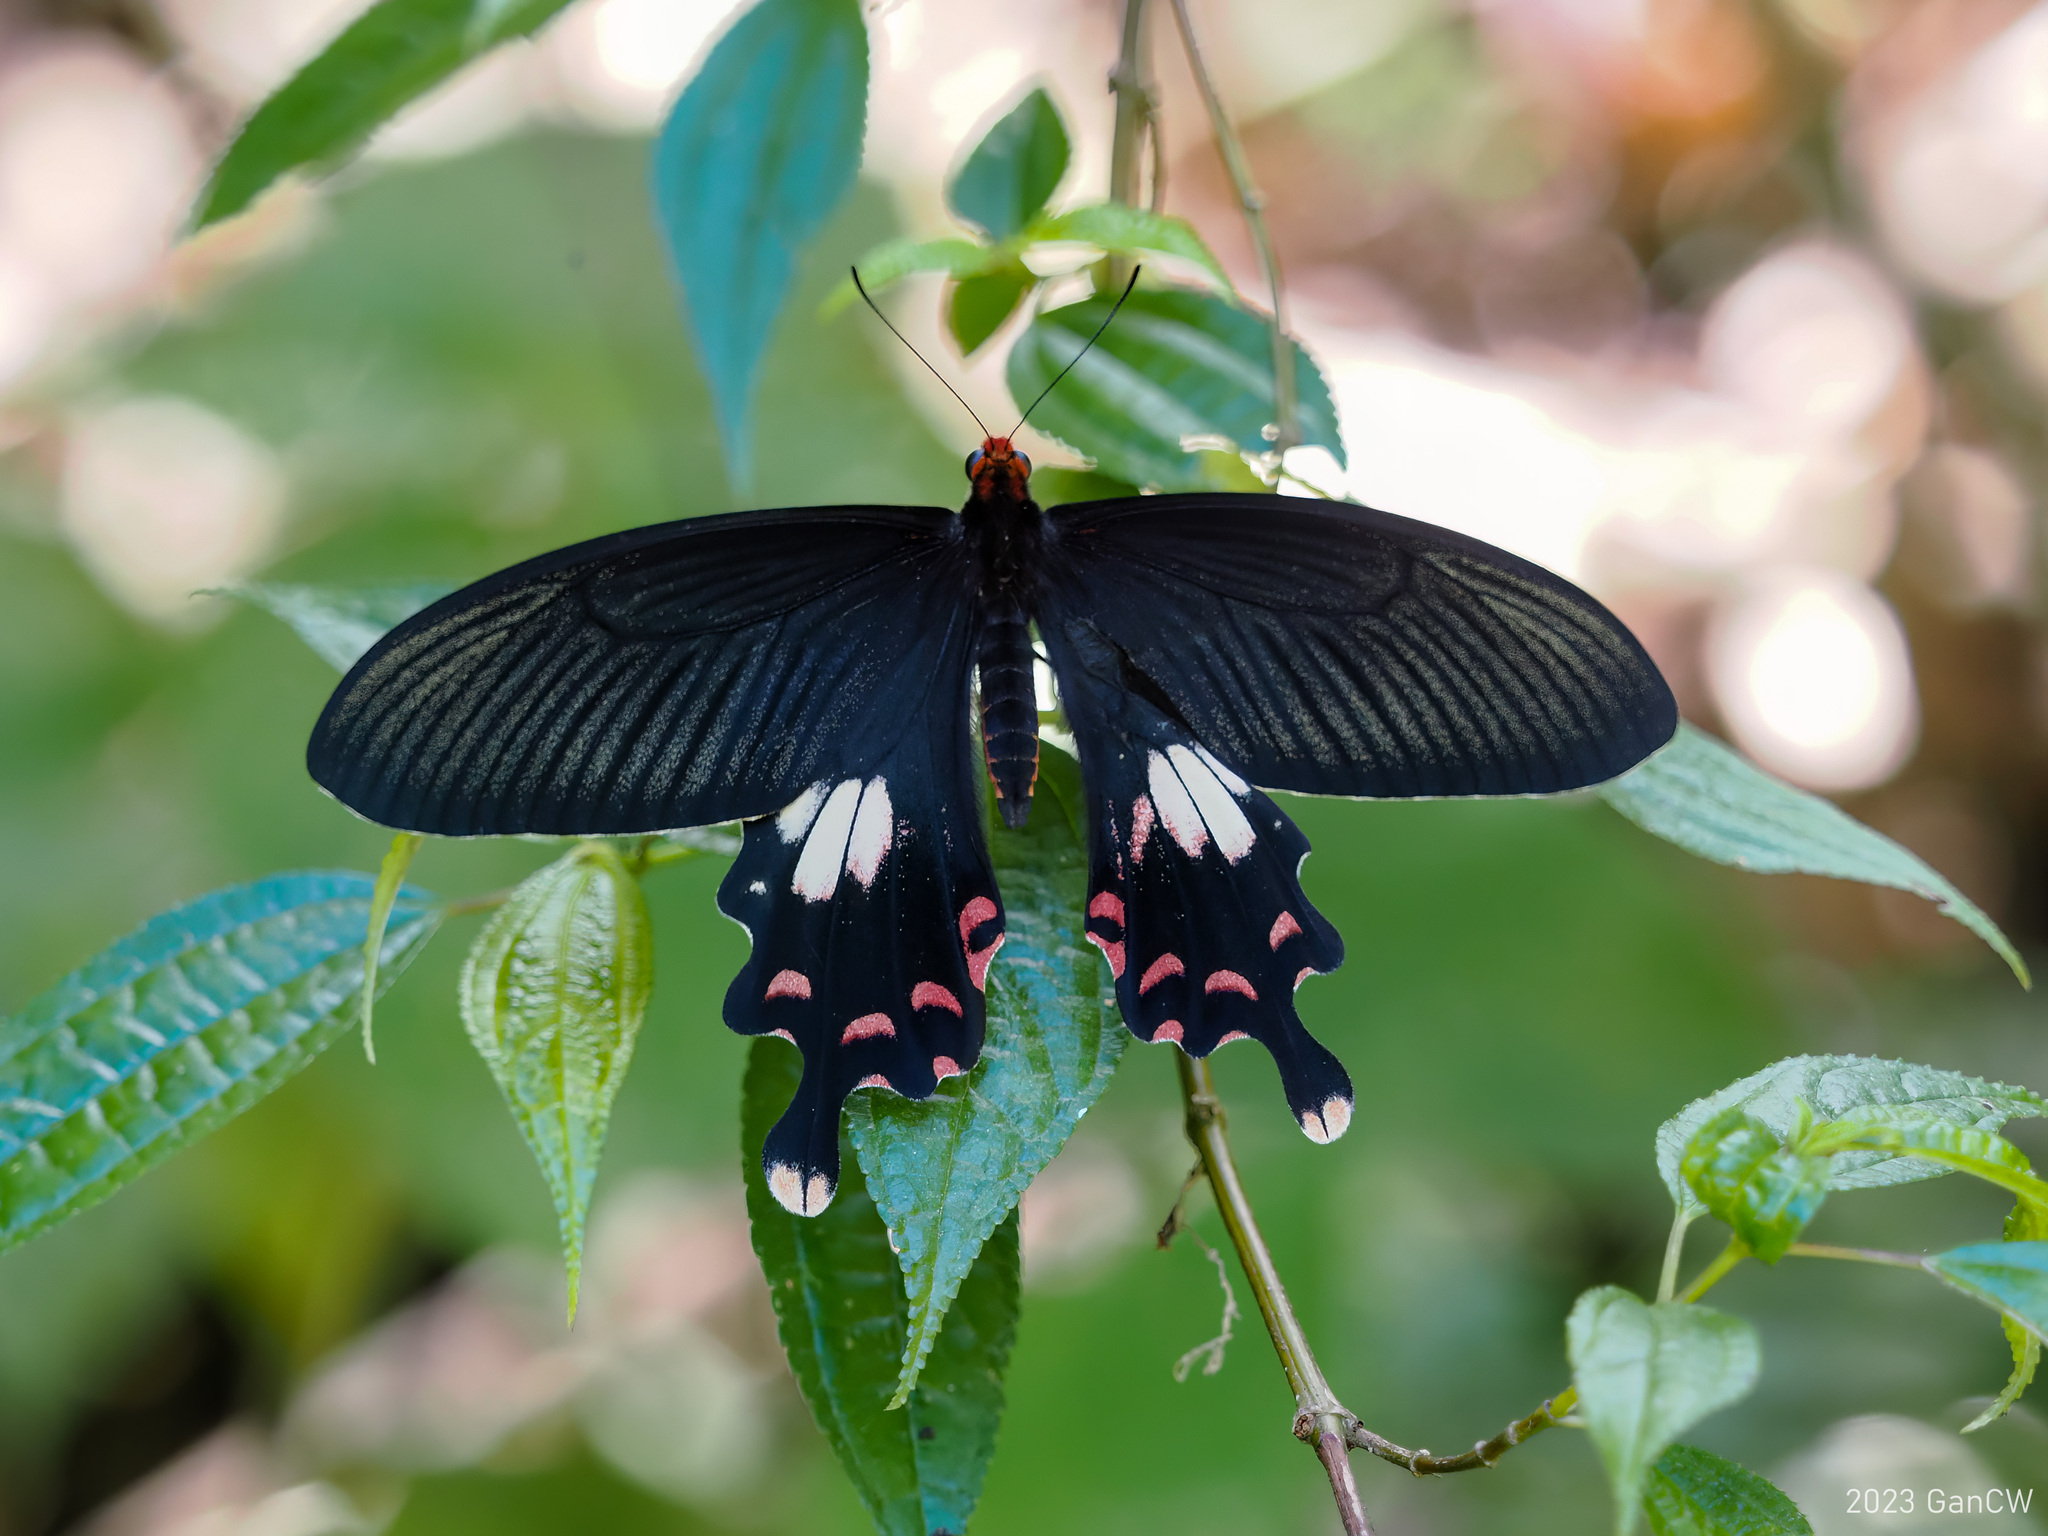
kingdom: Animalia
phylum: Arthropoda
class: Insecta
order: Lepidoptera
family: Papilionidae
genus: Papilio
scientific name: Papilio janaka
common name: Himalayan tailed redbreast
